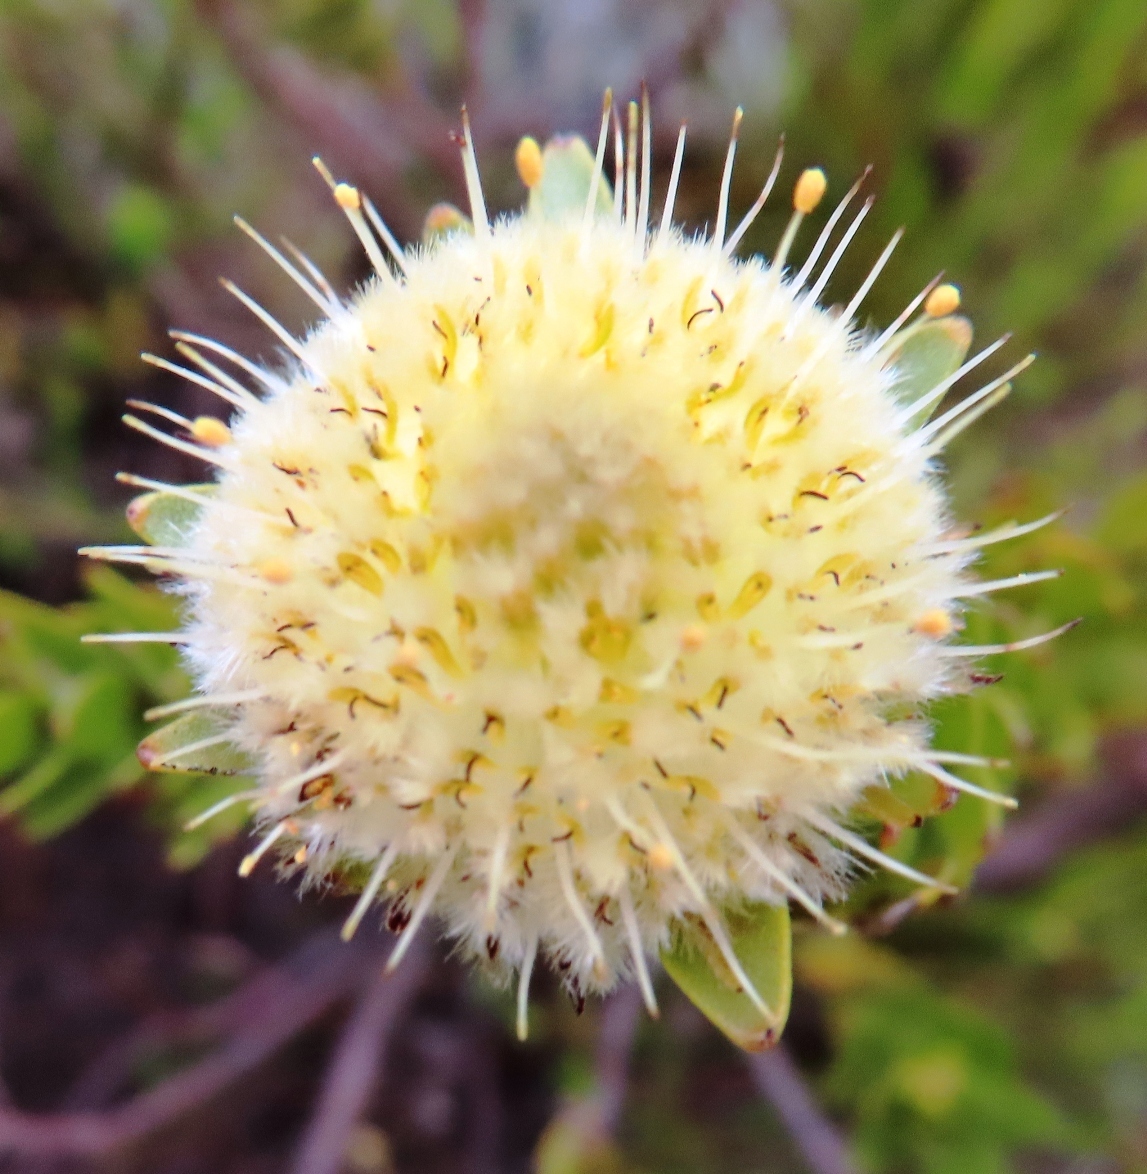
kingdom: Plantae
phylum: Tracheophyta
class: Magnoliopsida
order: Proteales
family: Proteaceae
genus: Diastella
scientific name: Diastella thymelaeoides
